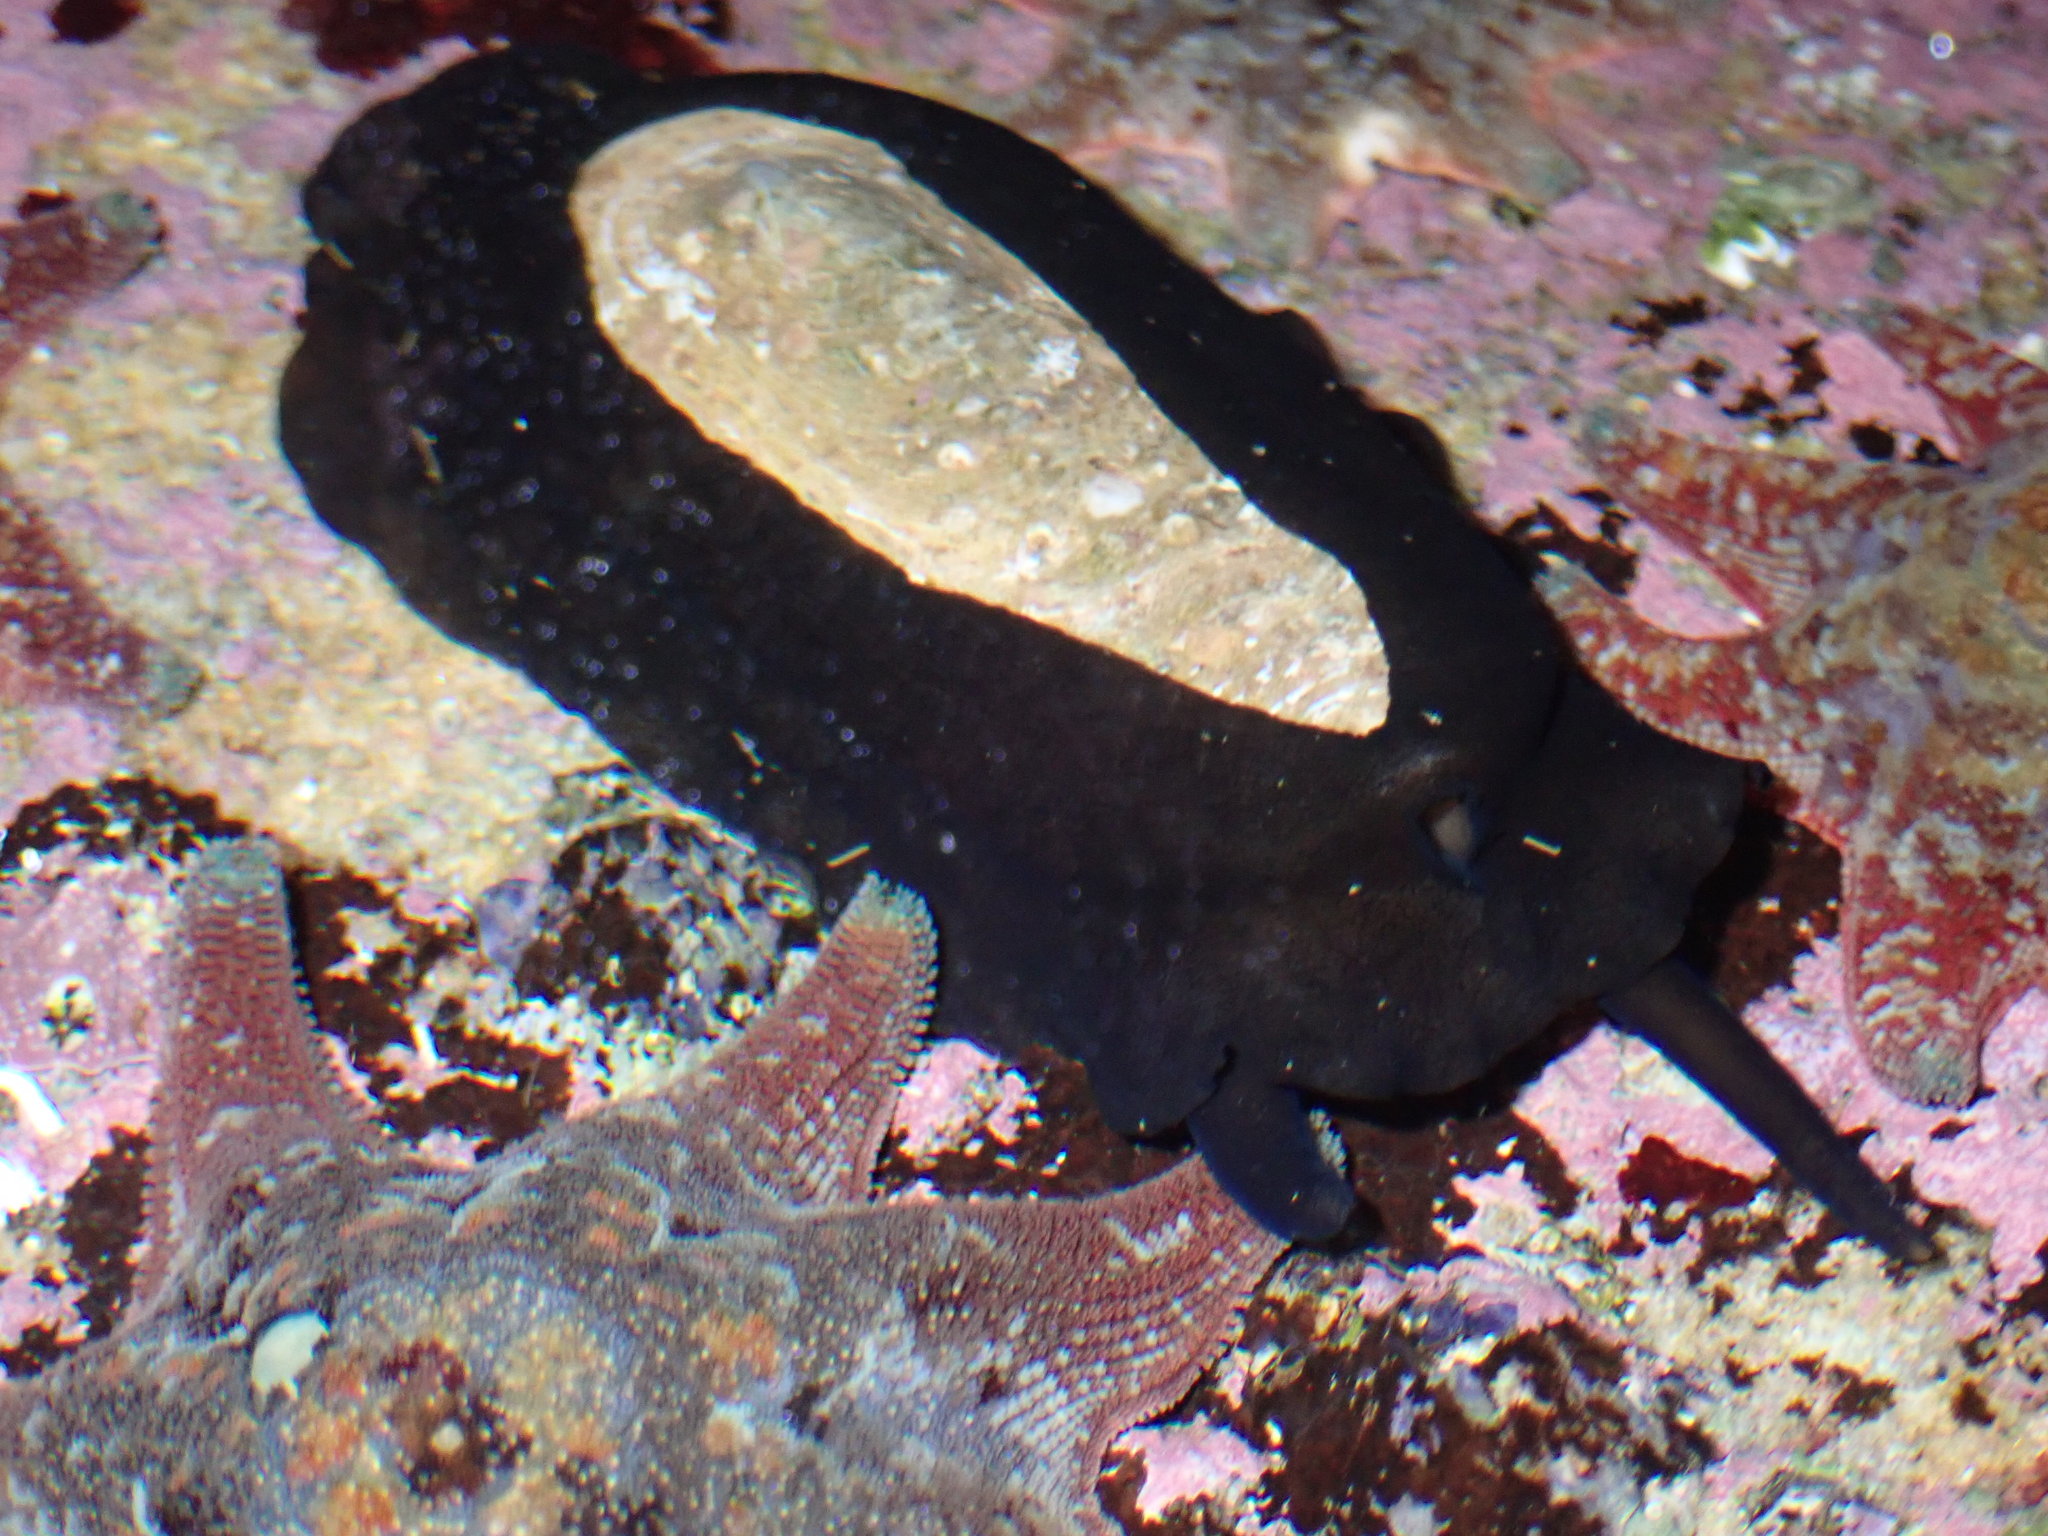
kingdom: Animalia
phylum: Mollusca
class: Gastropoda
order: Lepetellida
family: Fissurellidae
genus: Scutus
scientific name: Scutus antipodes
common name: Duckbill shell
